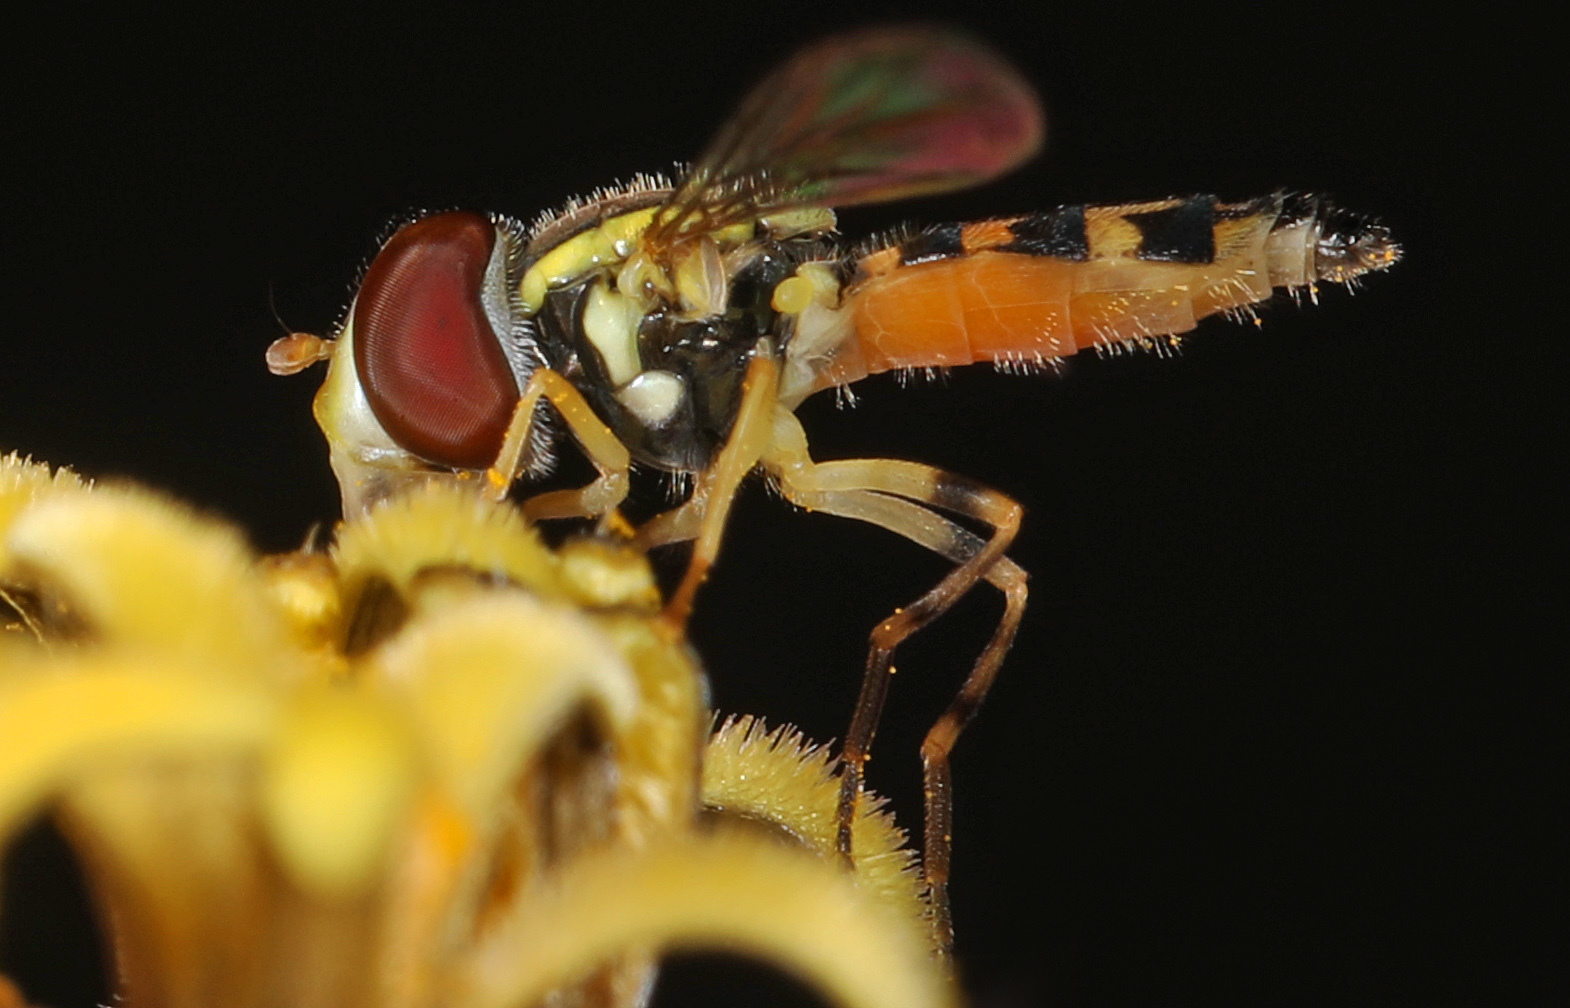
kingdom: Animalia
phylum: Arthropoda
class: Insecta
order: Diptera
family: Syrphidae
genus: Toxomerus
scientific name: Toxomerus geminatus
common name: Eastern calligrapher
